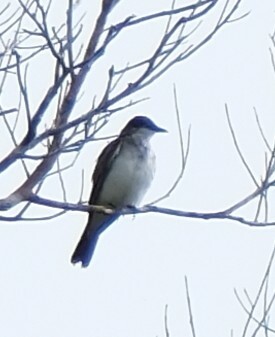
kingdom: Animalia
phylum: Chordata
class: Aves
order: Passeriformes
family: Tyrannidae
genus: Tyrannus
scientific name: Tyrannus tyrannus
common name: Eastern kingbird
